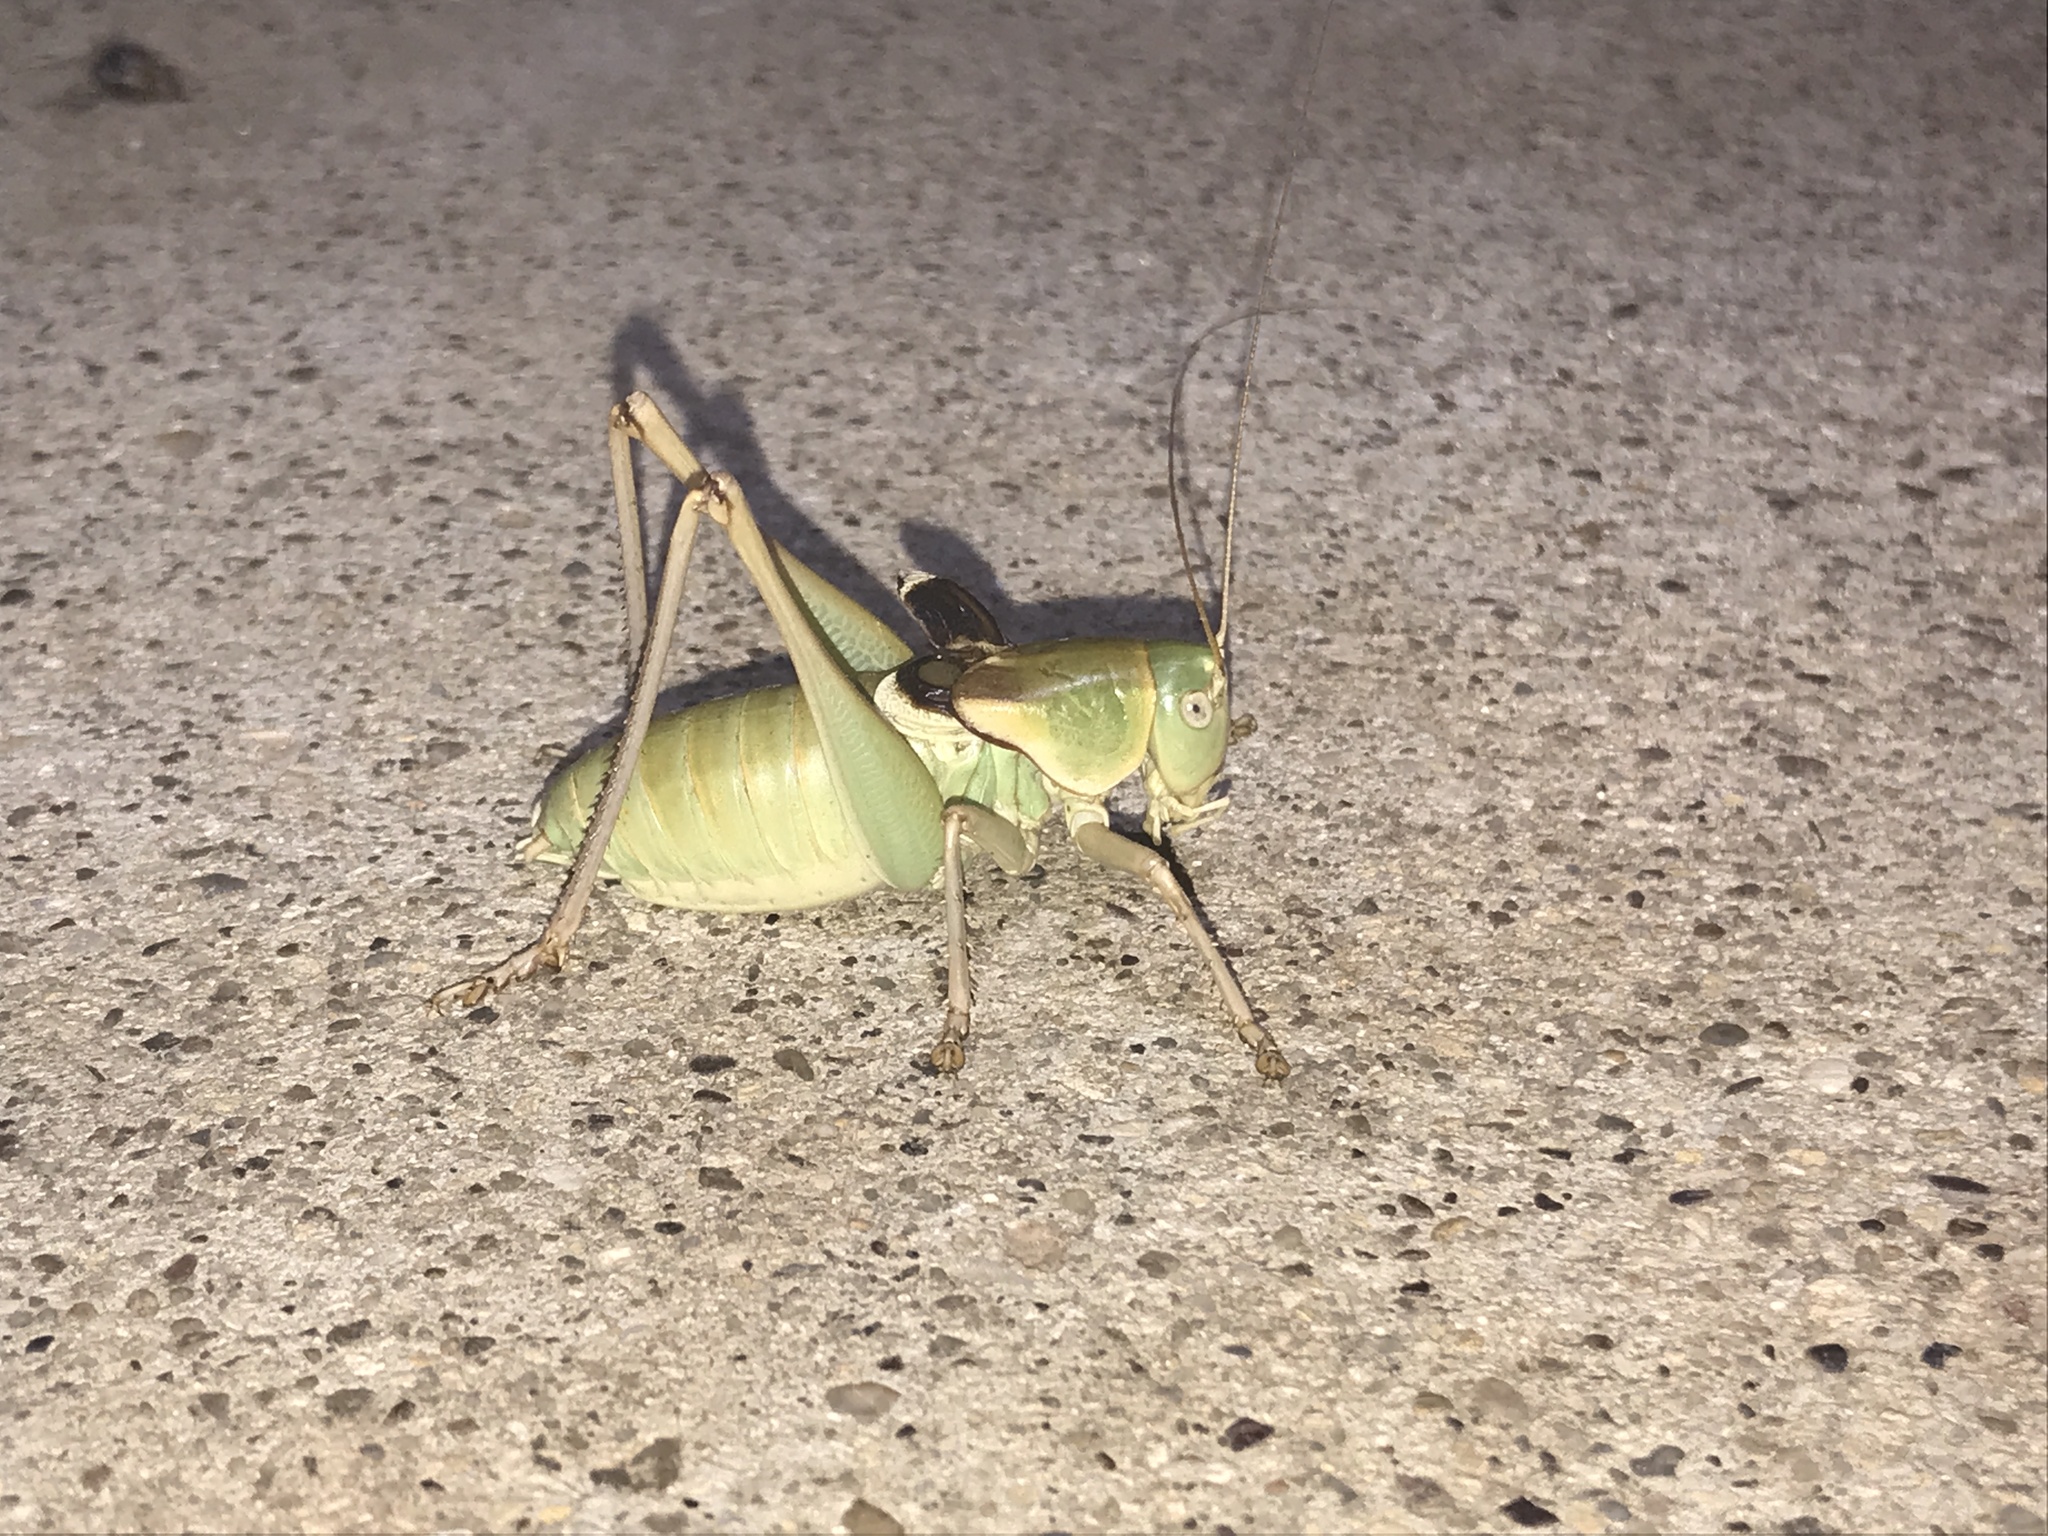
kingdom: Animalia
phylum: Arthropoda
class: Insecta
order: Orthoptera
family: Tettigoniidae
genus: Pediodectes
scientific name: Pediodectes haldemanii
